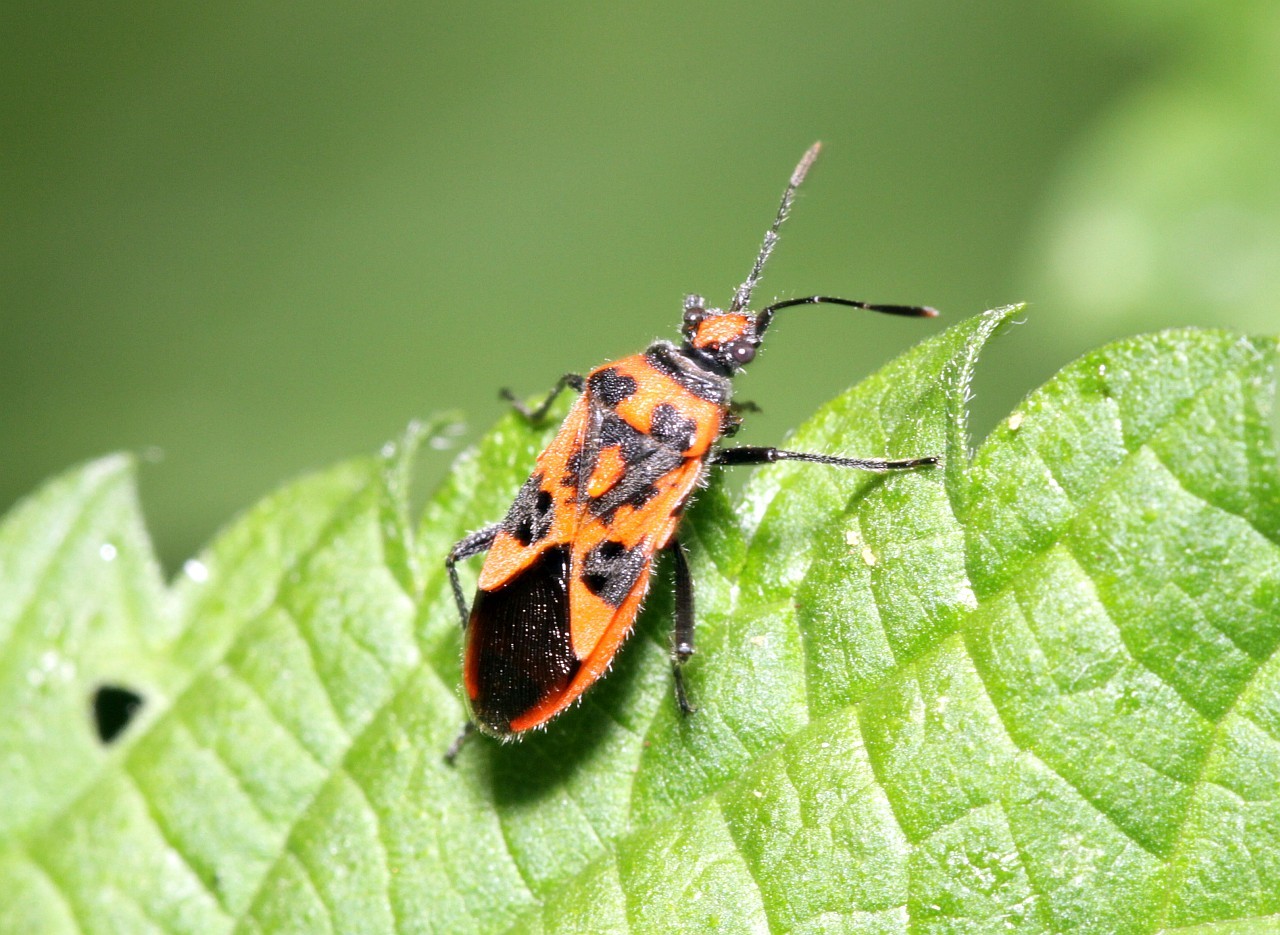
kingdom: Animalia
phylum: Arthropoda
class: Insecta
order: Hemiptera
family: Rhopalidae
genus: Corizus
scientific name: Corizus hyoscyami
